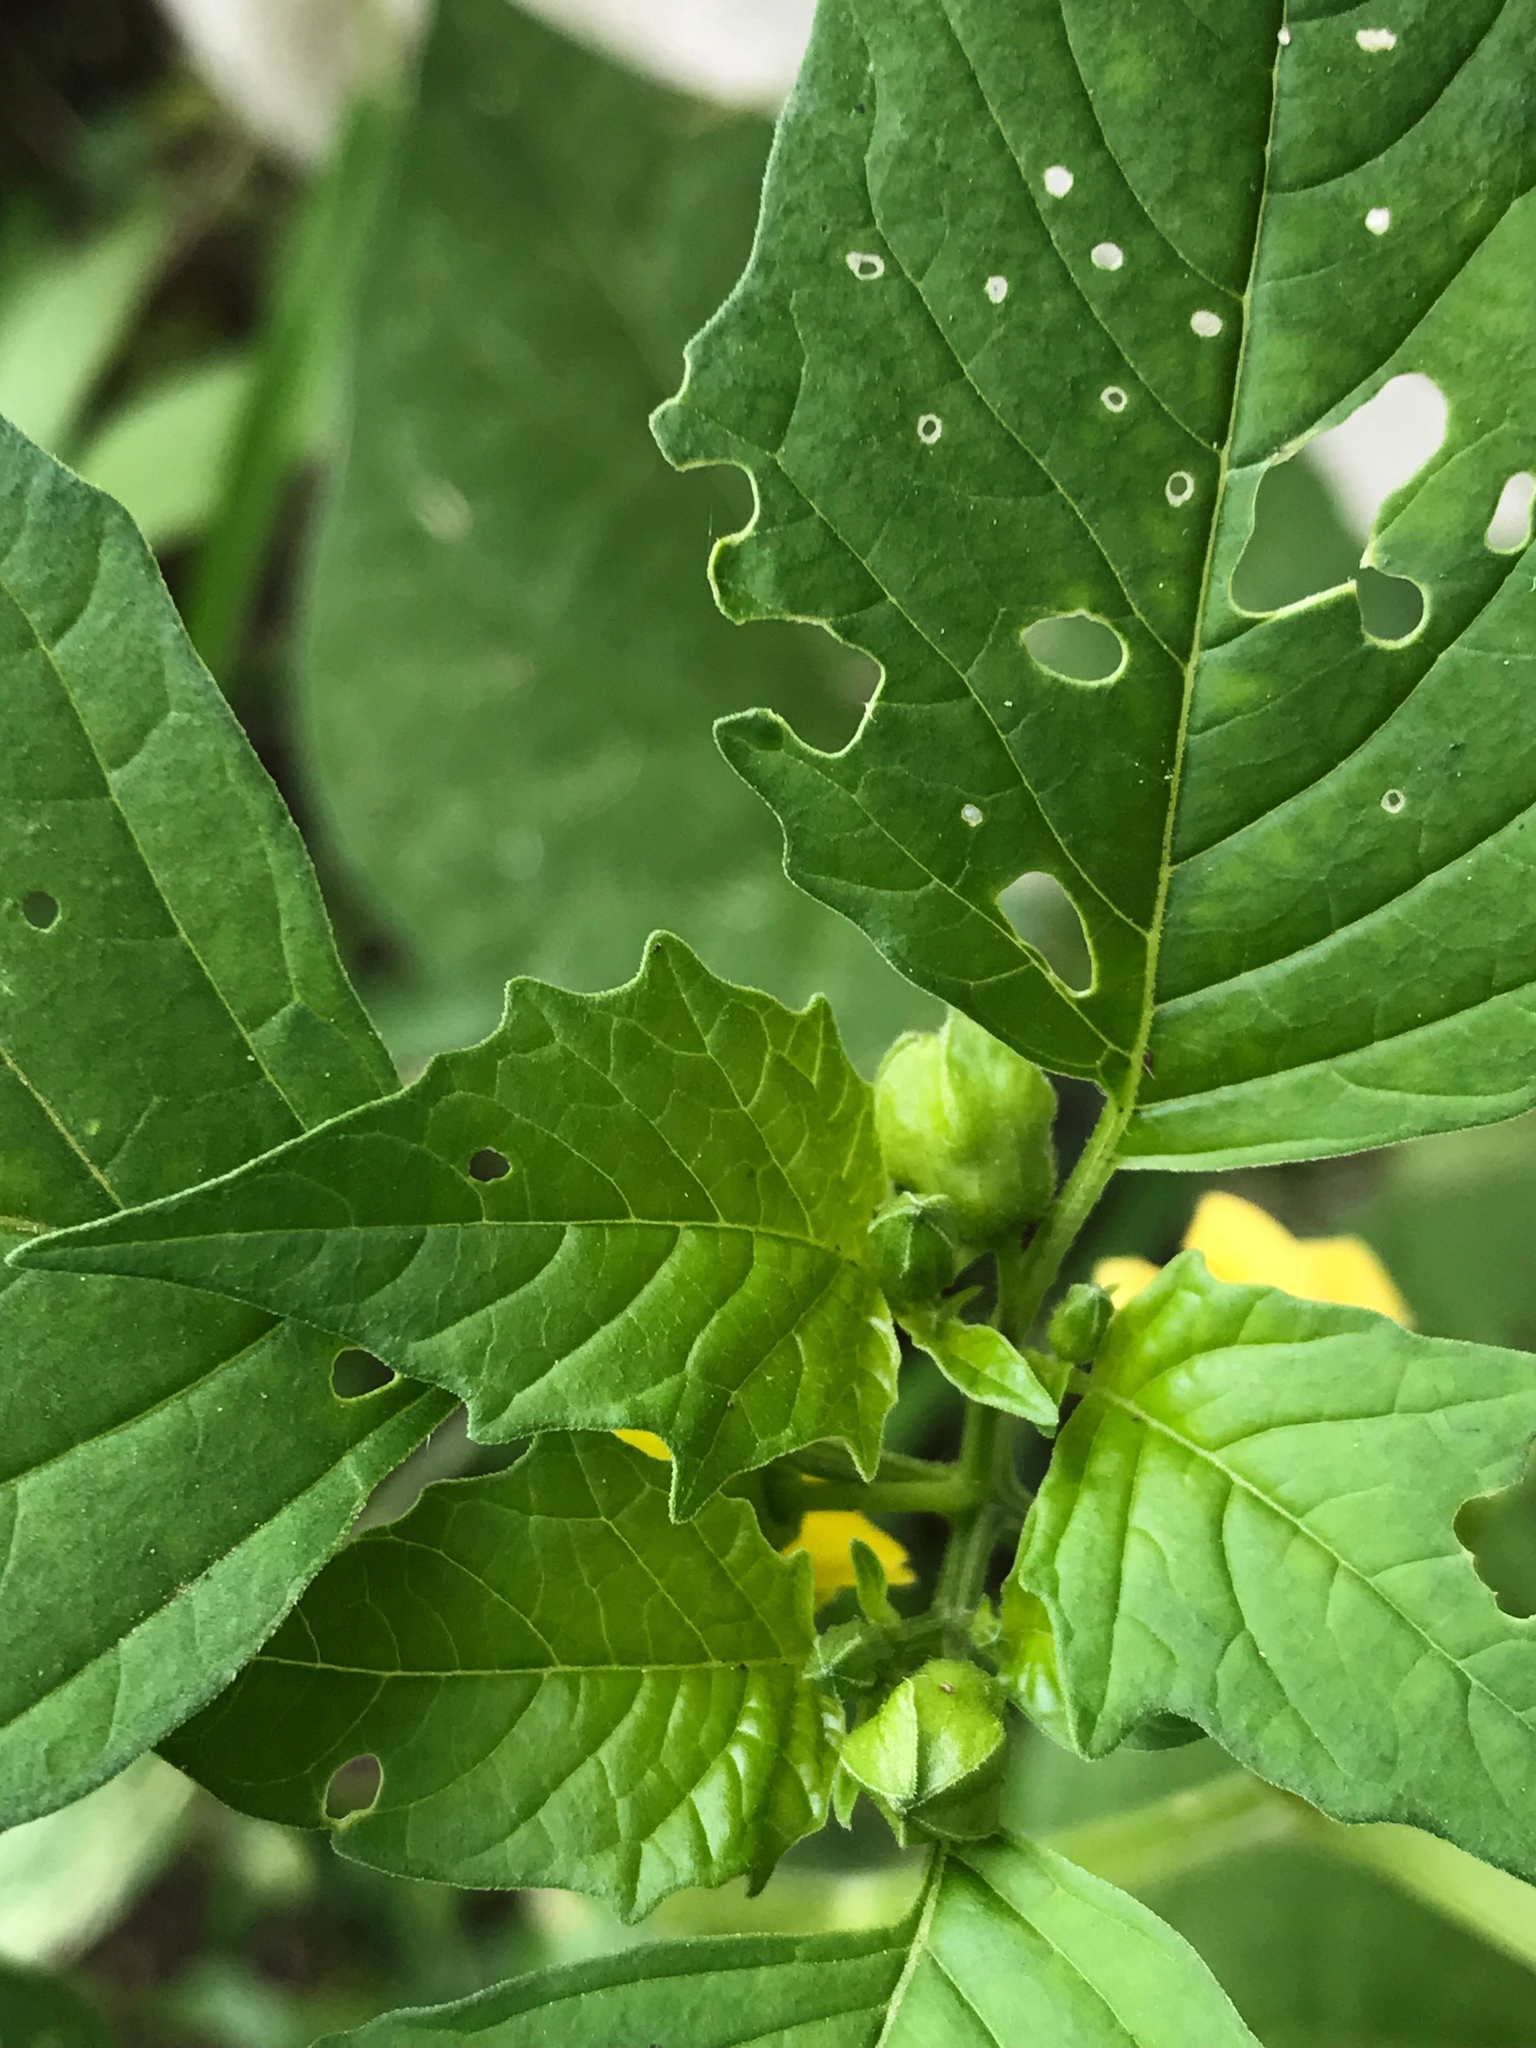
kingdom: Plantae
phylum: Tracheophyta
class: Magnoliopsida
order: Solanales
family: Solanaceae
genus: Physalis
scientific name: Physalis philadelphica
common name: Husk-tomato
